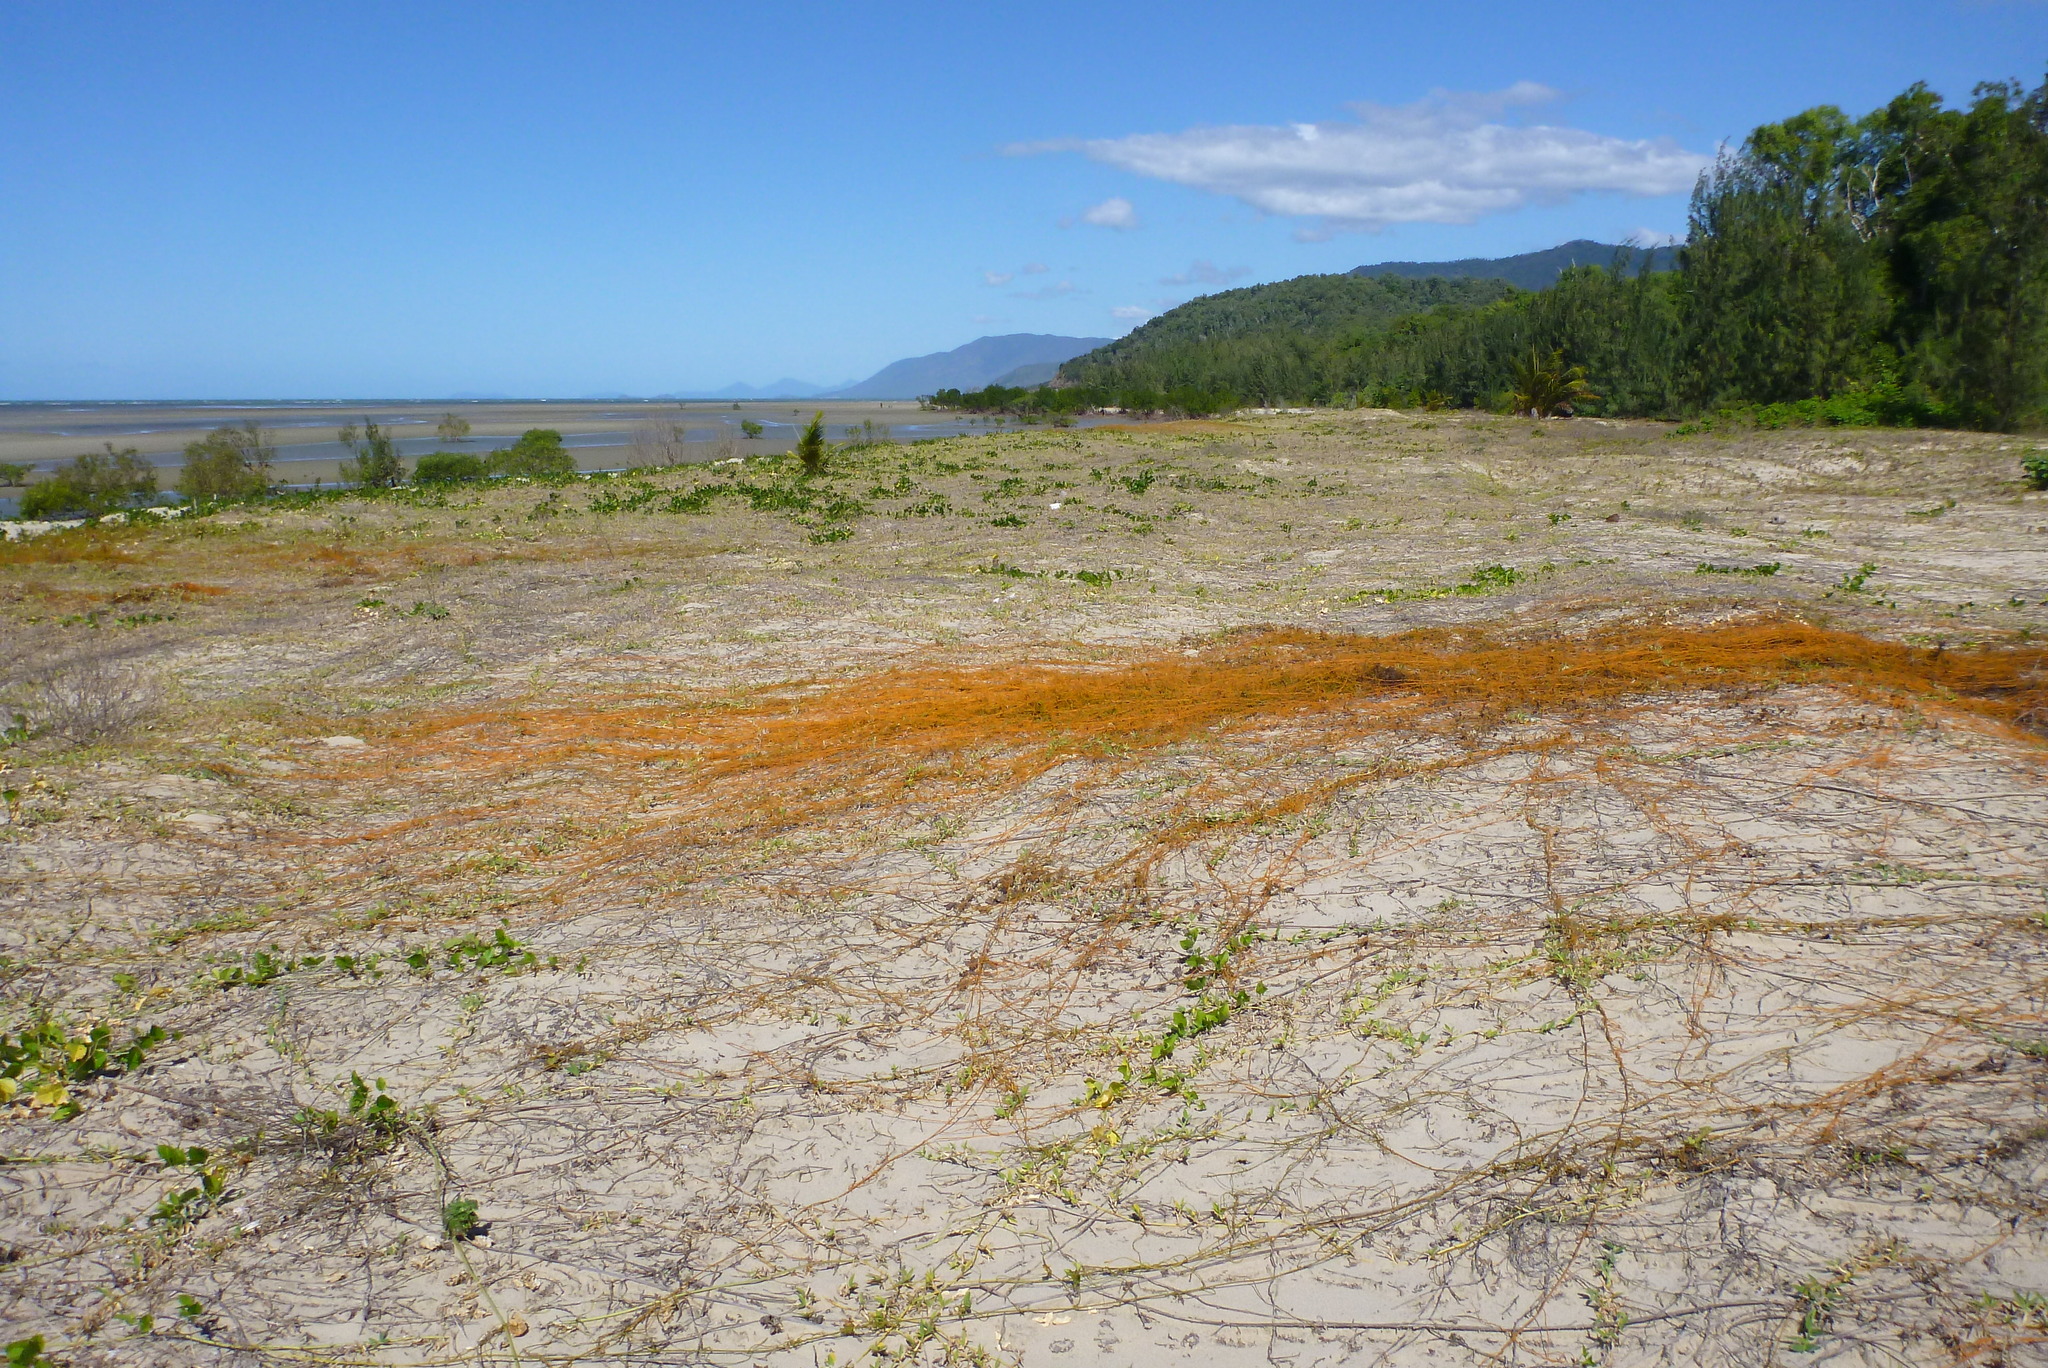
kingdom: Plantae
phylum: Tracheophyta
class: Magnoliopsida
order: Laurales
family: Lauraceae
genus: Cassytha
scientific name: Cassytha filiformis
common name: Dodder-laurel
